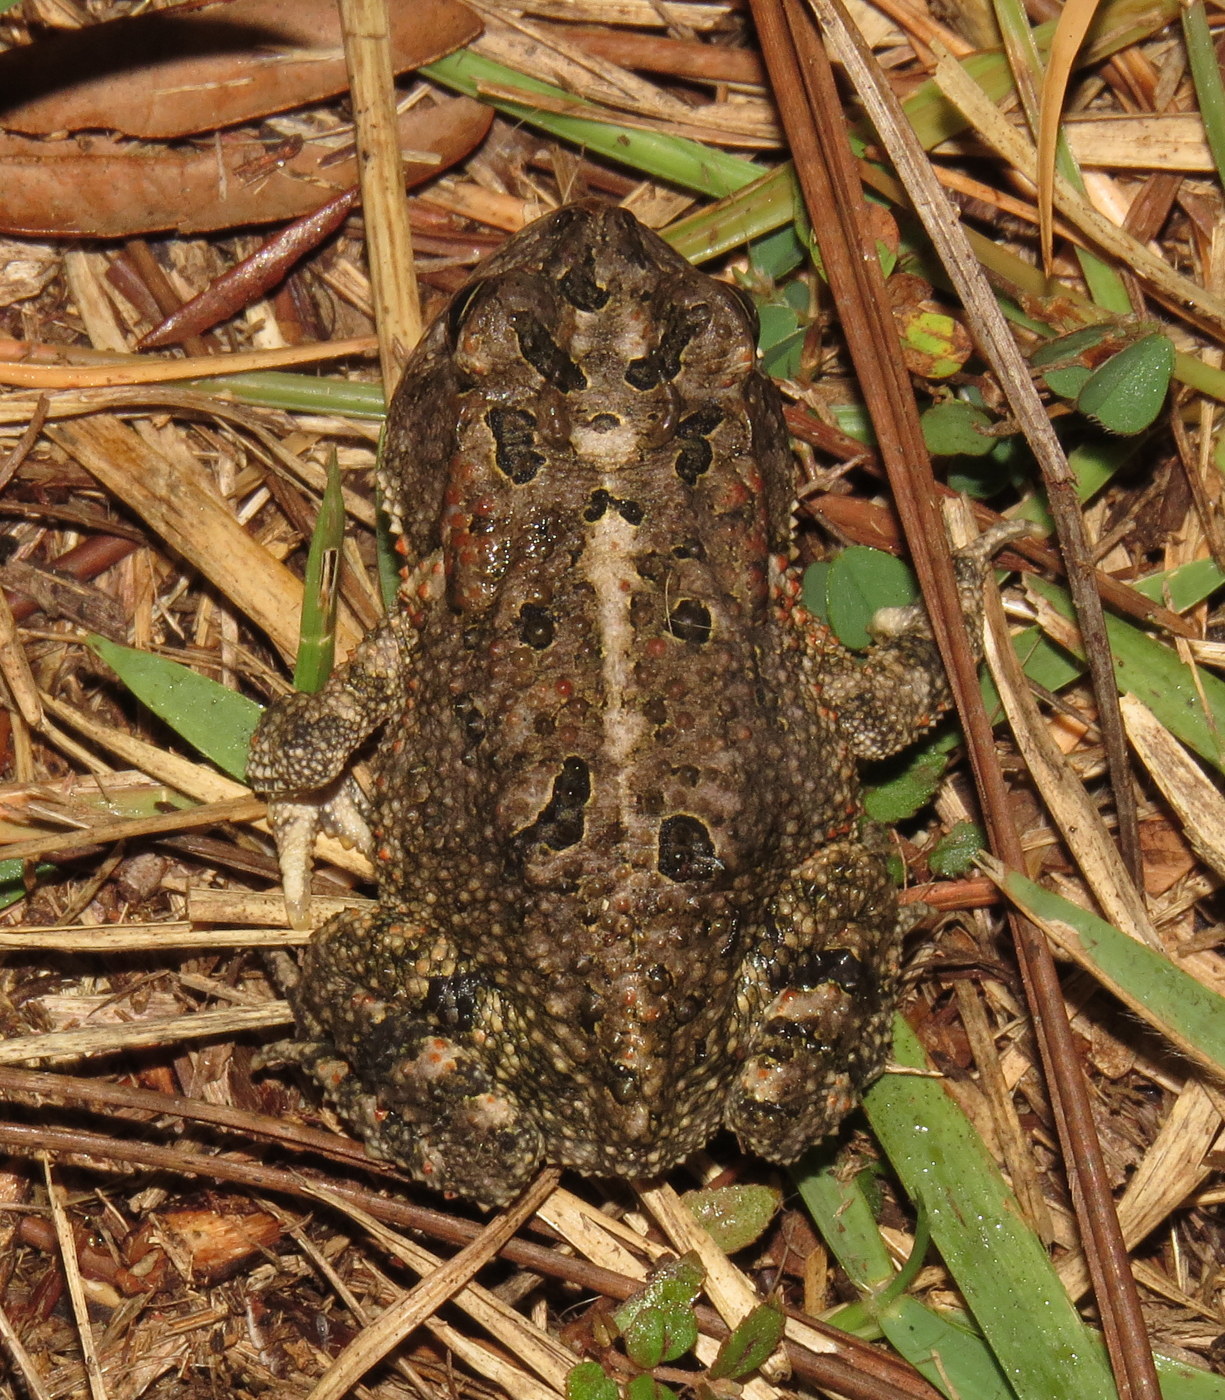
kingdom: Animalia
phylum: Chordata
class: Amphibia
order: Anura
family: Bufonidae
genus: Anaxyrus
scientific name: Anaxyrus terrestris
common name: Southern toad
